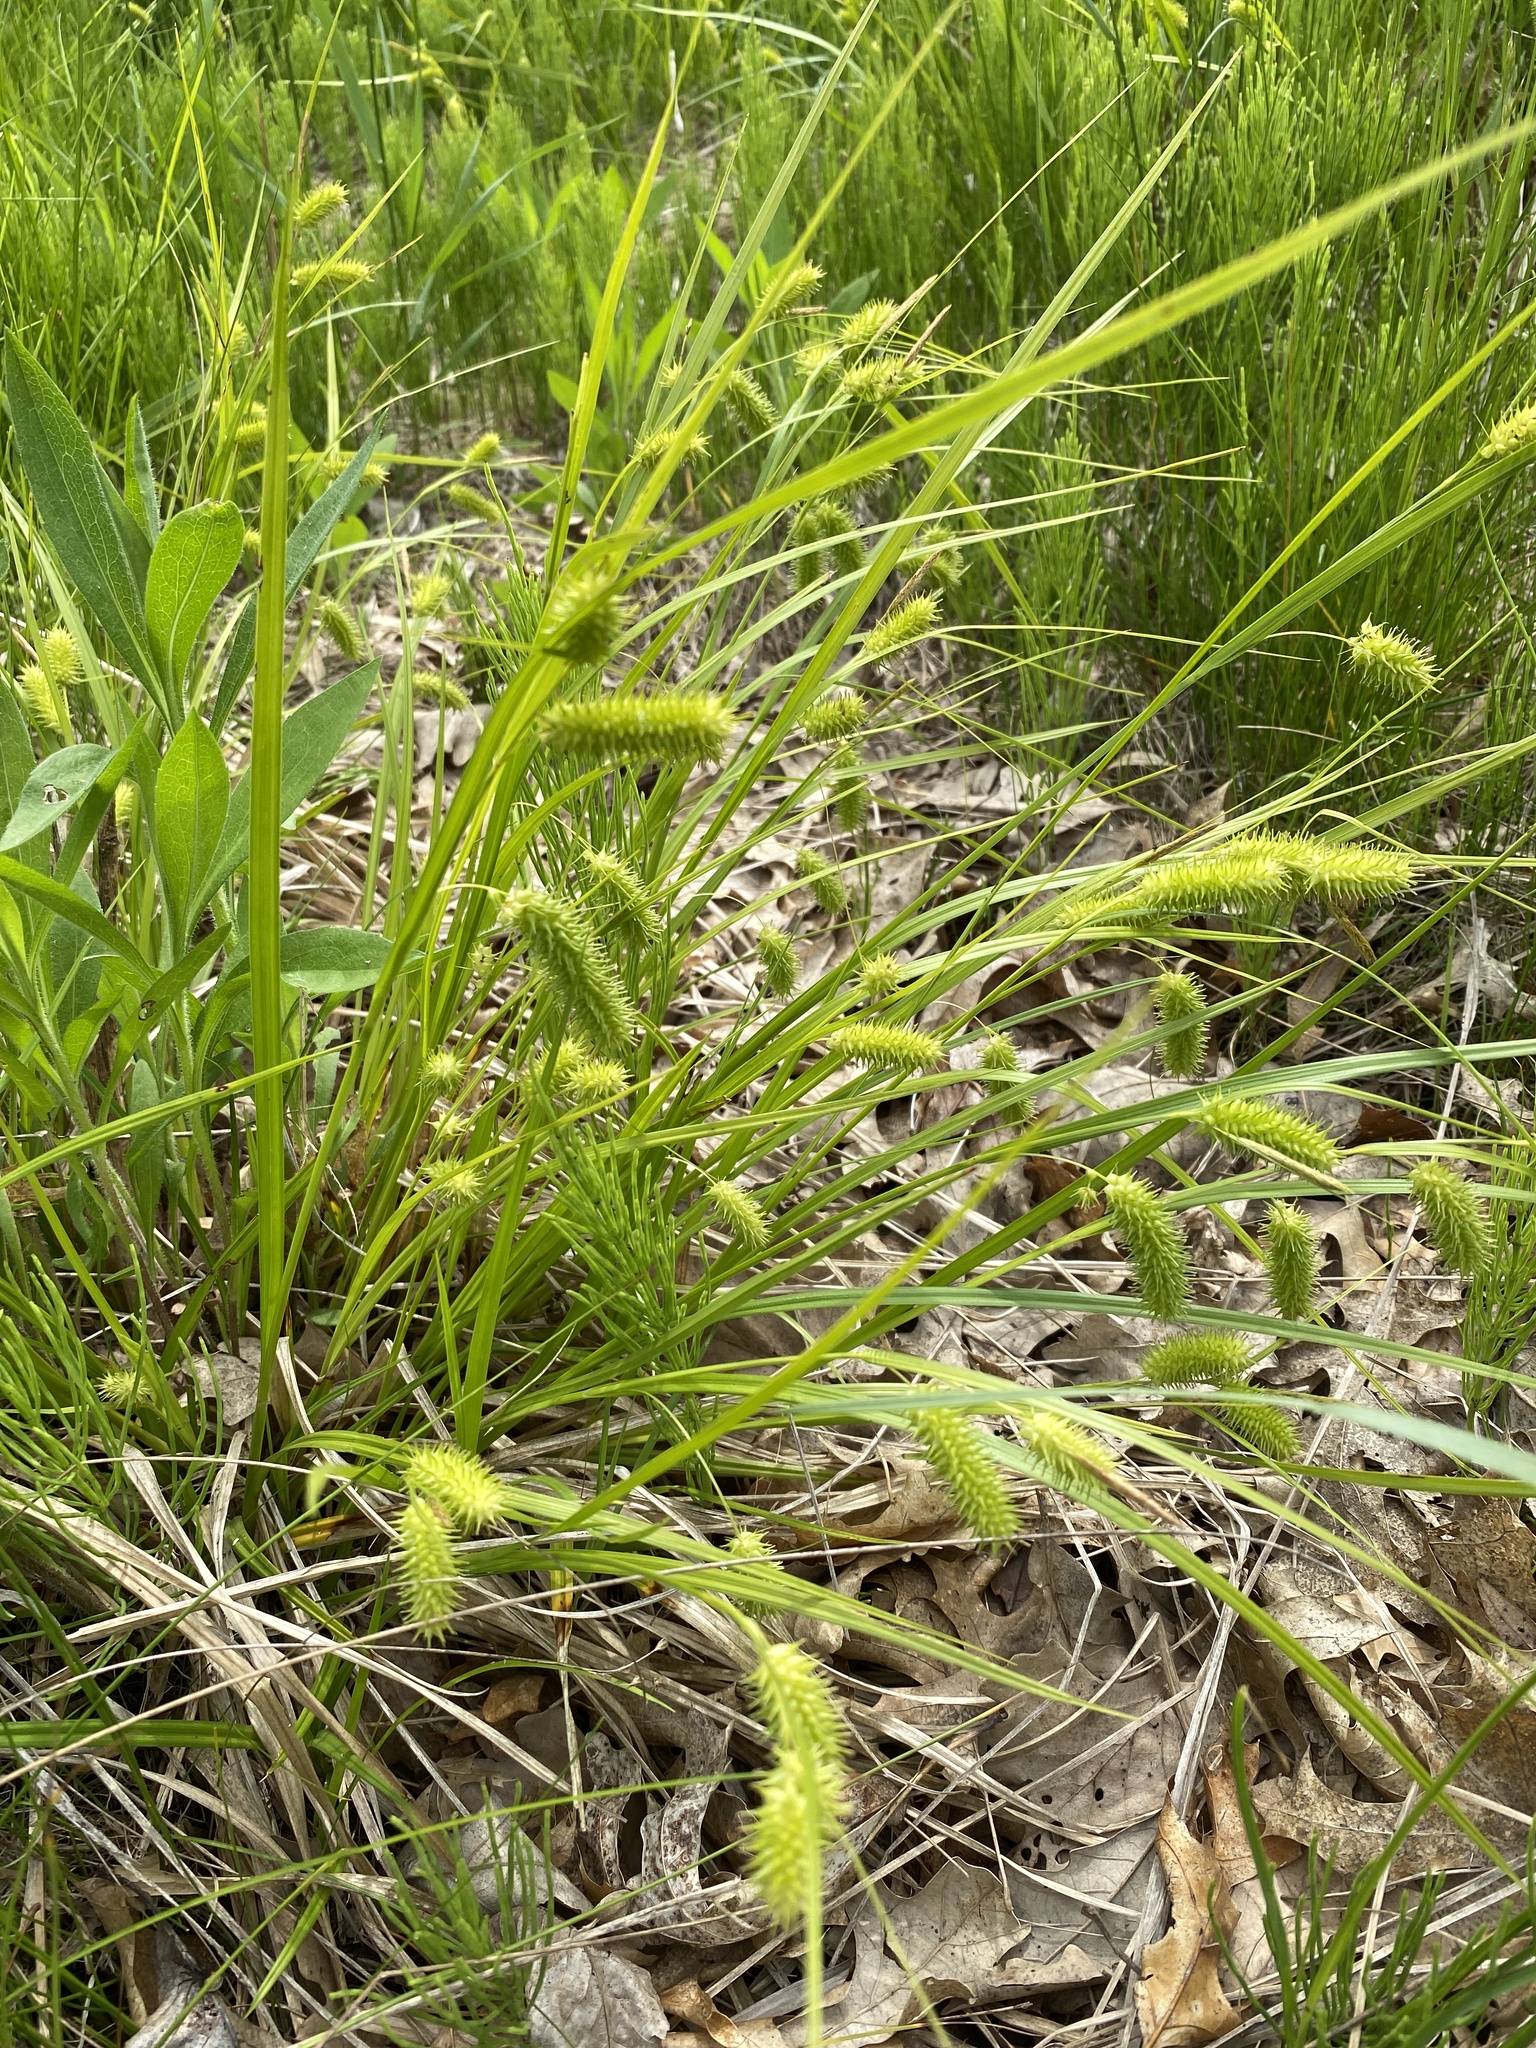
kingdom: Plantae
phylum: Tracheophyta
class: Liliopsida
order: Poales
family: Cyperaceae
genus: Carex
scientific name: Carex hystericina
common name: Bottlebrush sedge
